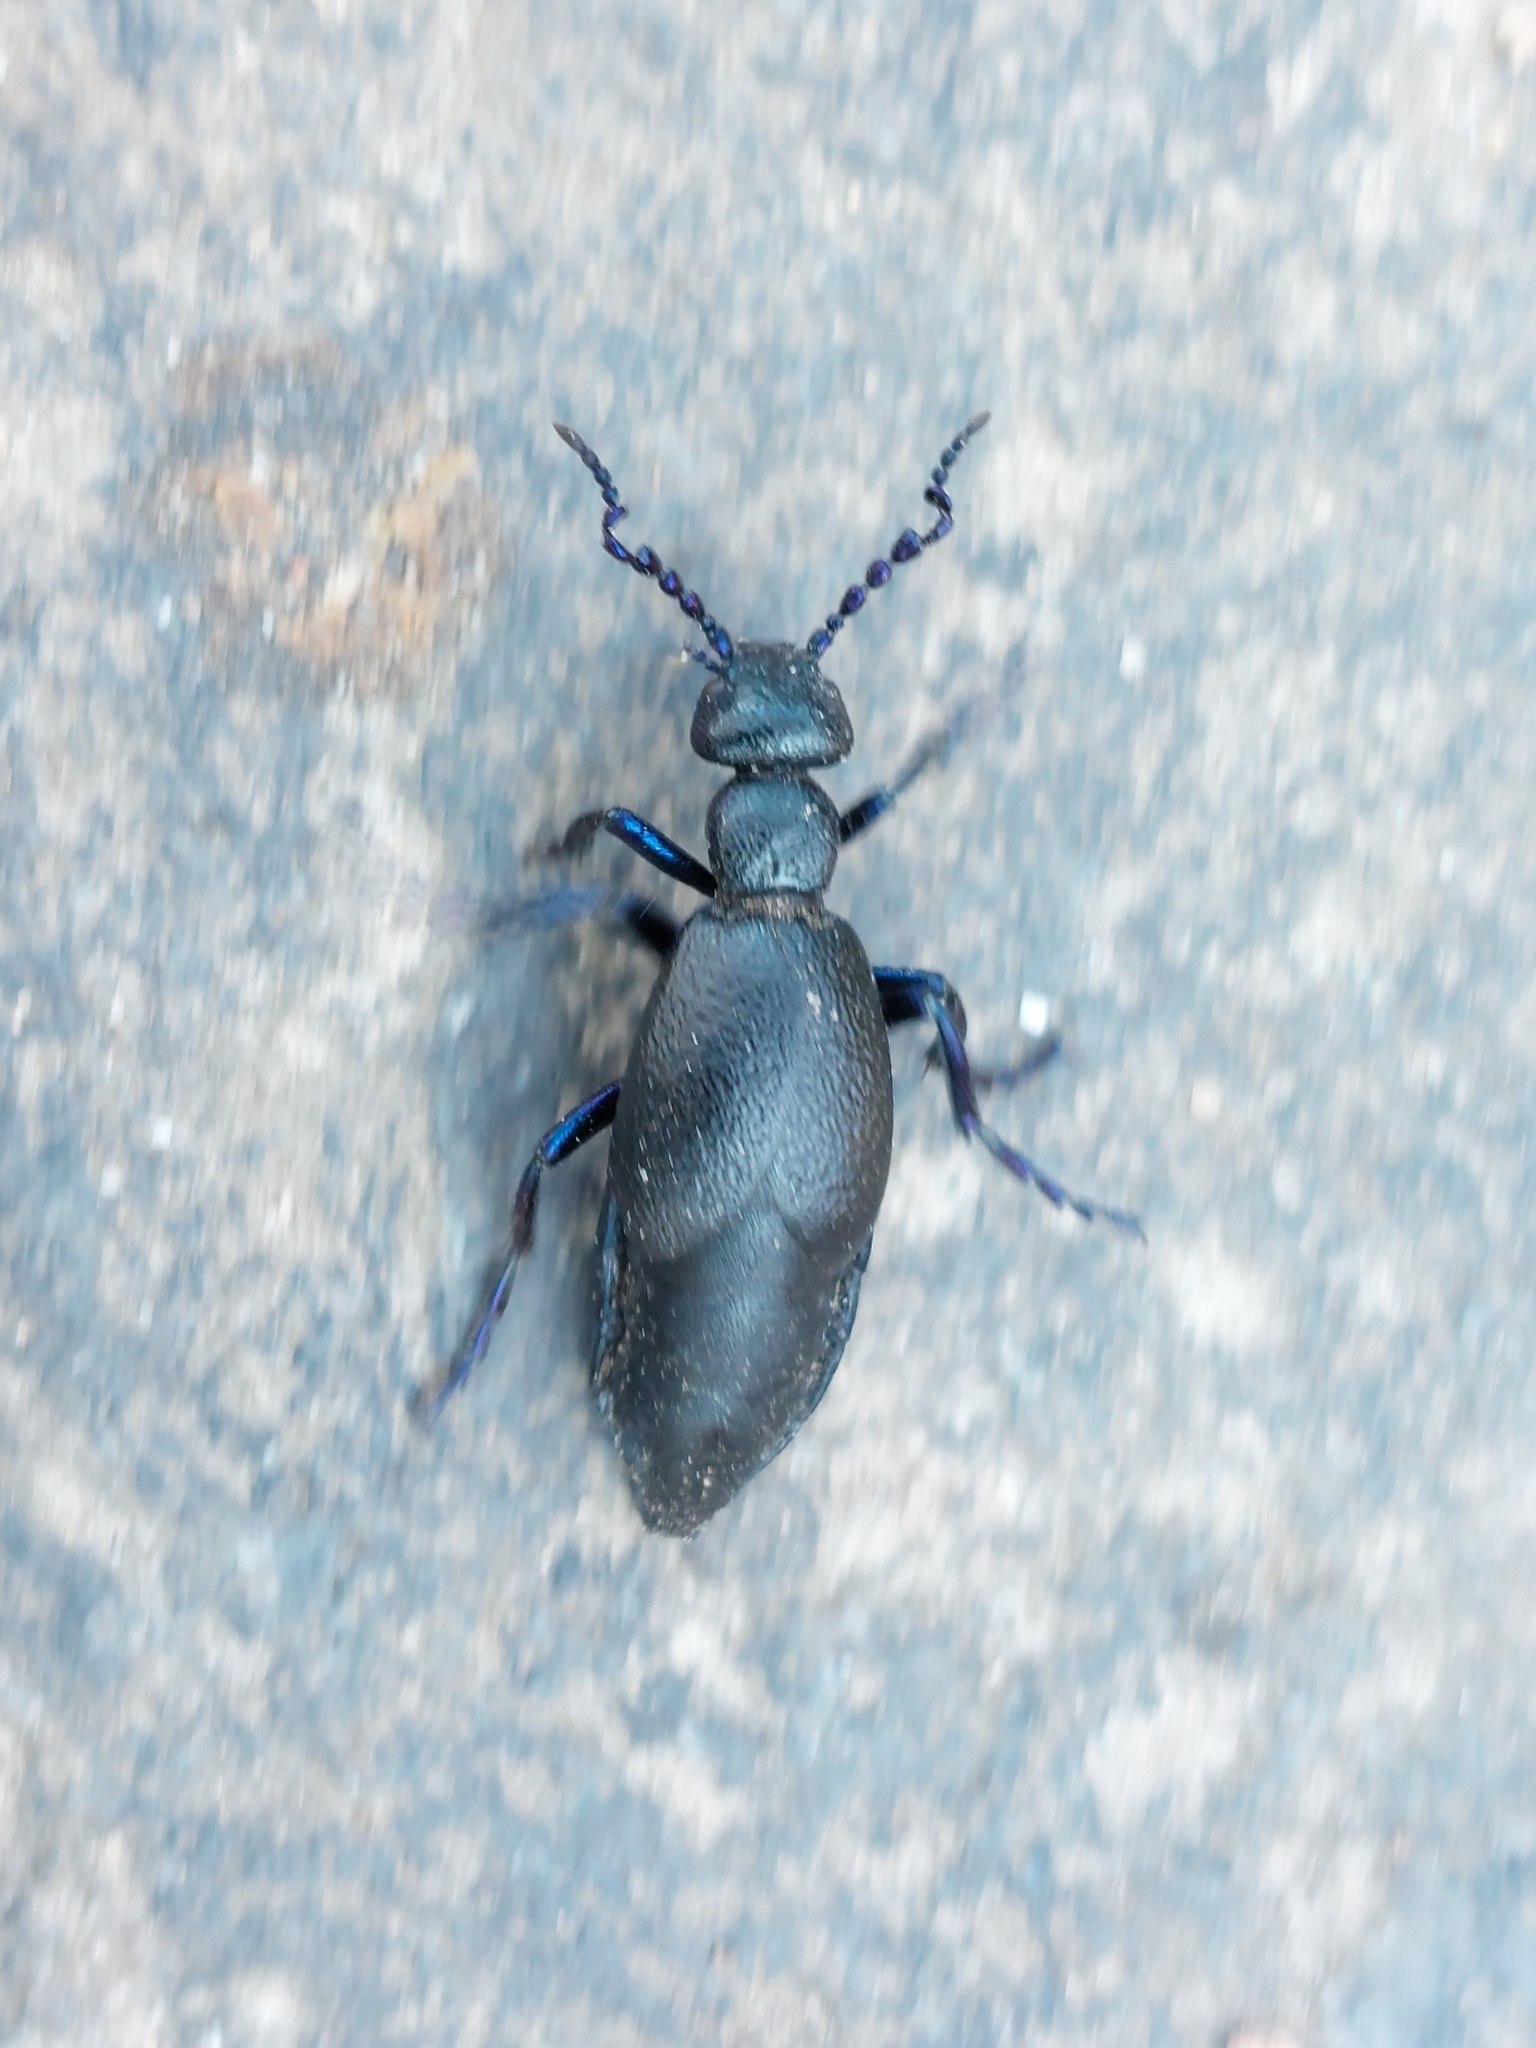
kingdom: Animalia
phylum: Arthropoda
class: Insecta
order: Coleoptera
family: Meloidae
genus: Meloe
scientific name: Meloe proscarabaeus
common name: Black oil-beetle
